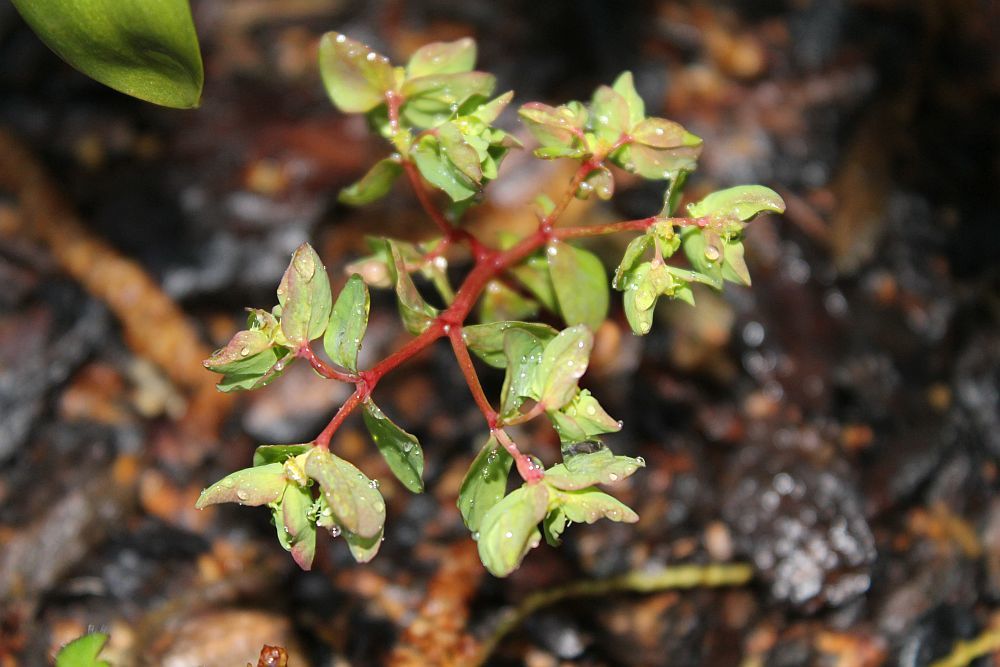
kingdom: Plantae
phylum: Tracheophyta
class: Magnoliopsida
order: Malpighiales
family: Euphorbiaceae
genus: Euphorbia
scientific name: Euphorbia peplus
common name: Petty spurge
